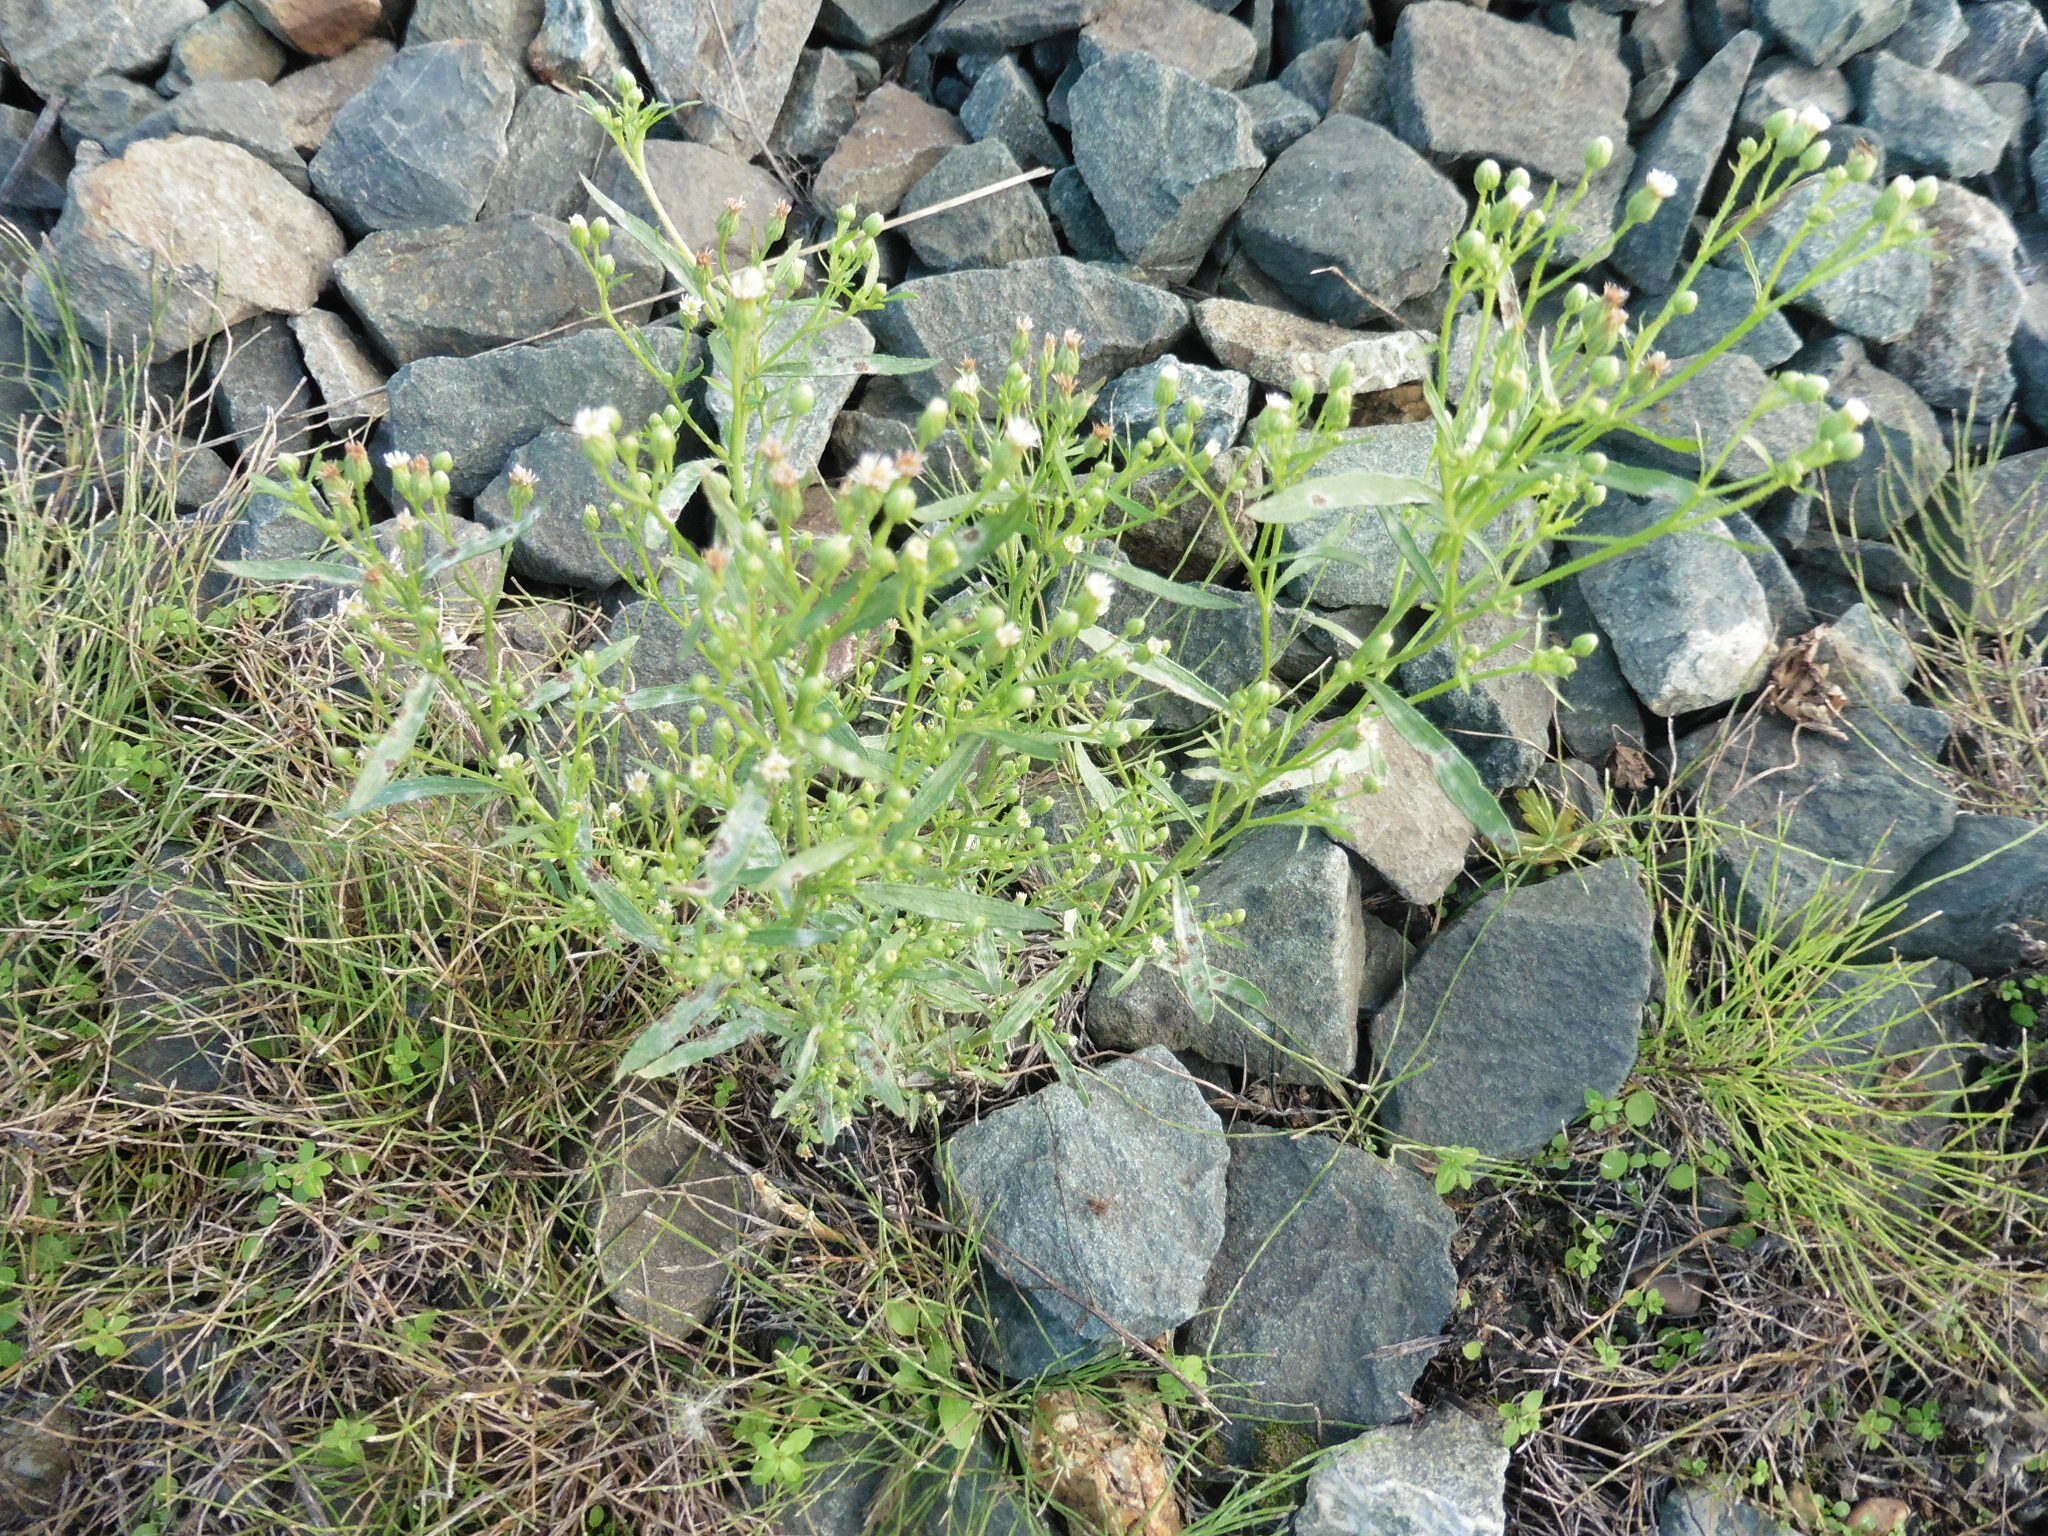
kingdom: Plantae
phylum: Tracheophyta
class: Magnoliopsida
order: Asterales
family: Asteraceae
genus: Erigeron
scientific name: Erigeron canadensis
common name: Canadian fleabane
